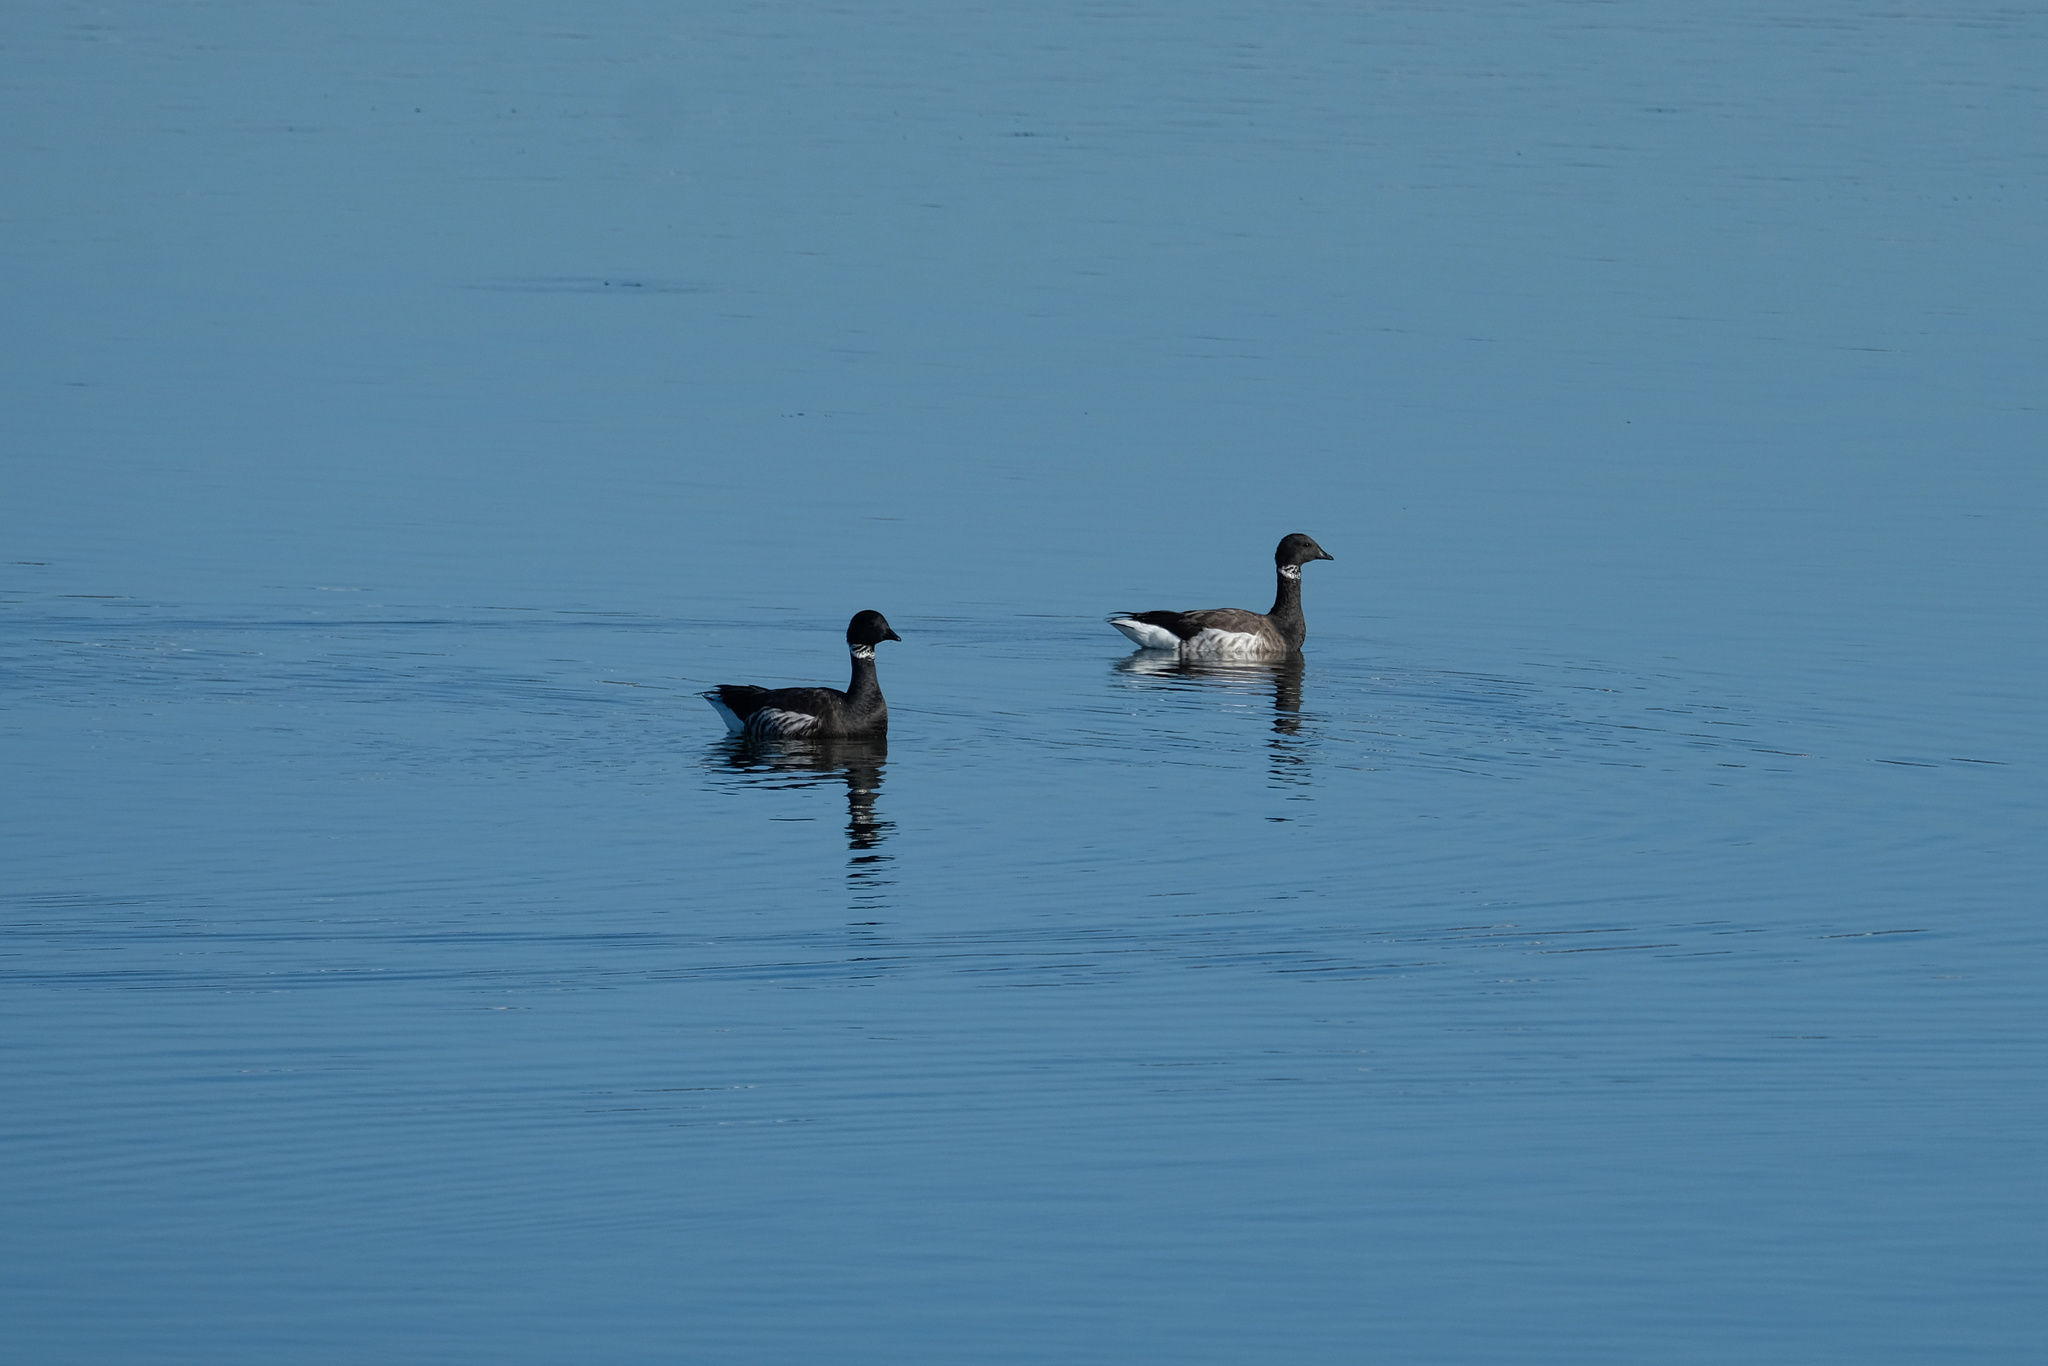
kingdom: Animalia
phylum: Chordata
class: Aves
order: Anseriformes
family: Anatidae
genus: Branta
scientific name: Branta bernicla
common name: Brant goose
